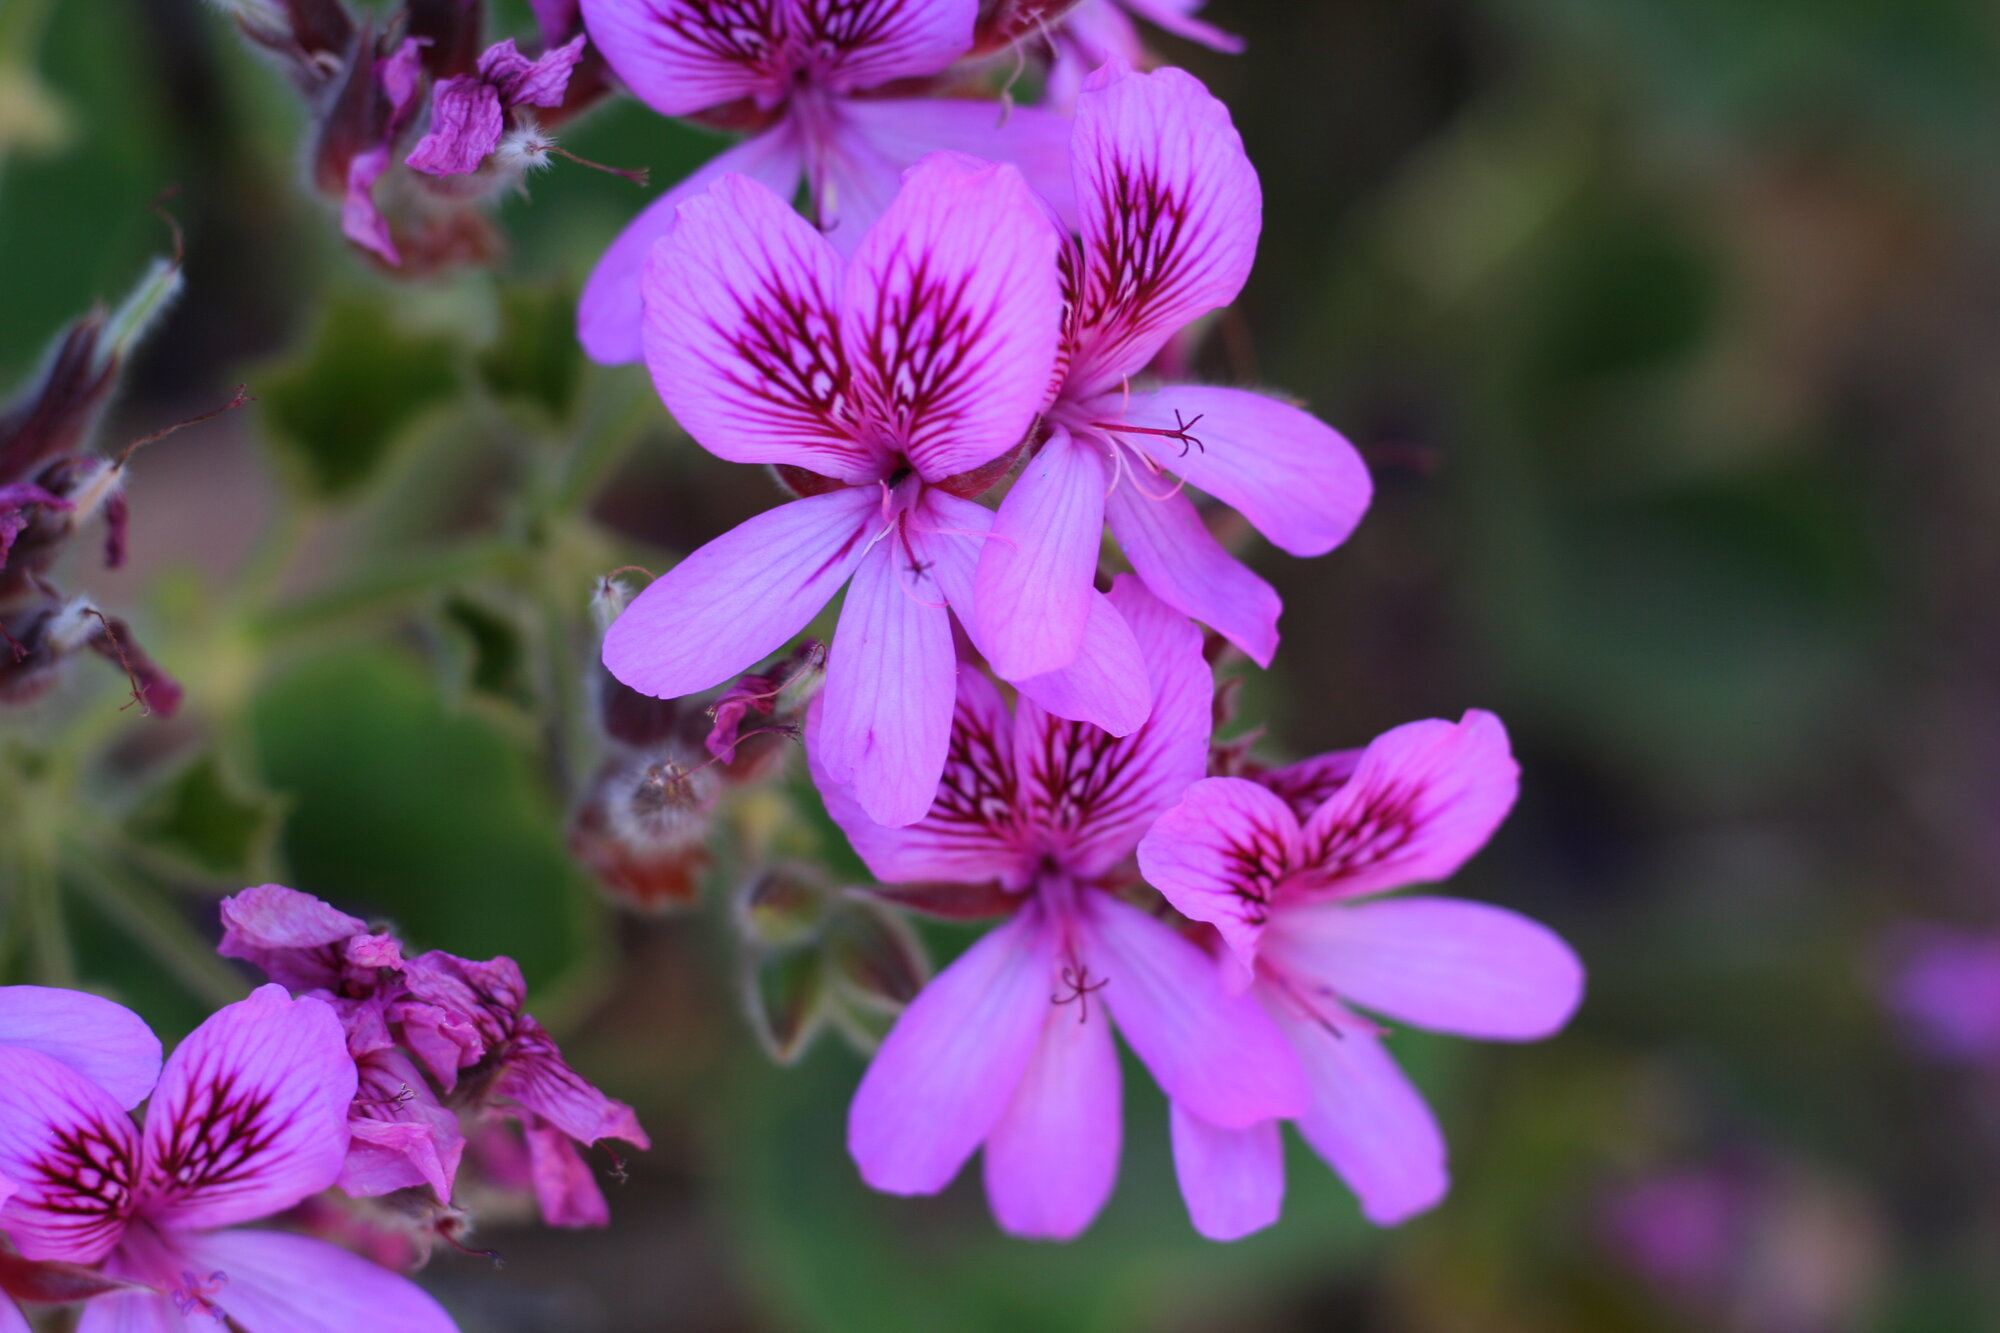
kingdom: Plantae
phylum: Tracheophyta
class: Magnoliopsida
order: Geraniales
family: Geraniaceae
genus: Pelargonium
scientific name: Pelargonium cucullatum
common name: Tree pelargonium
